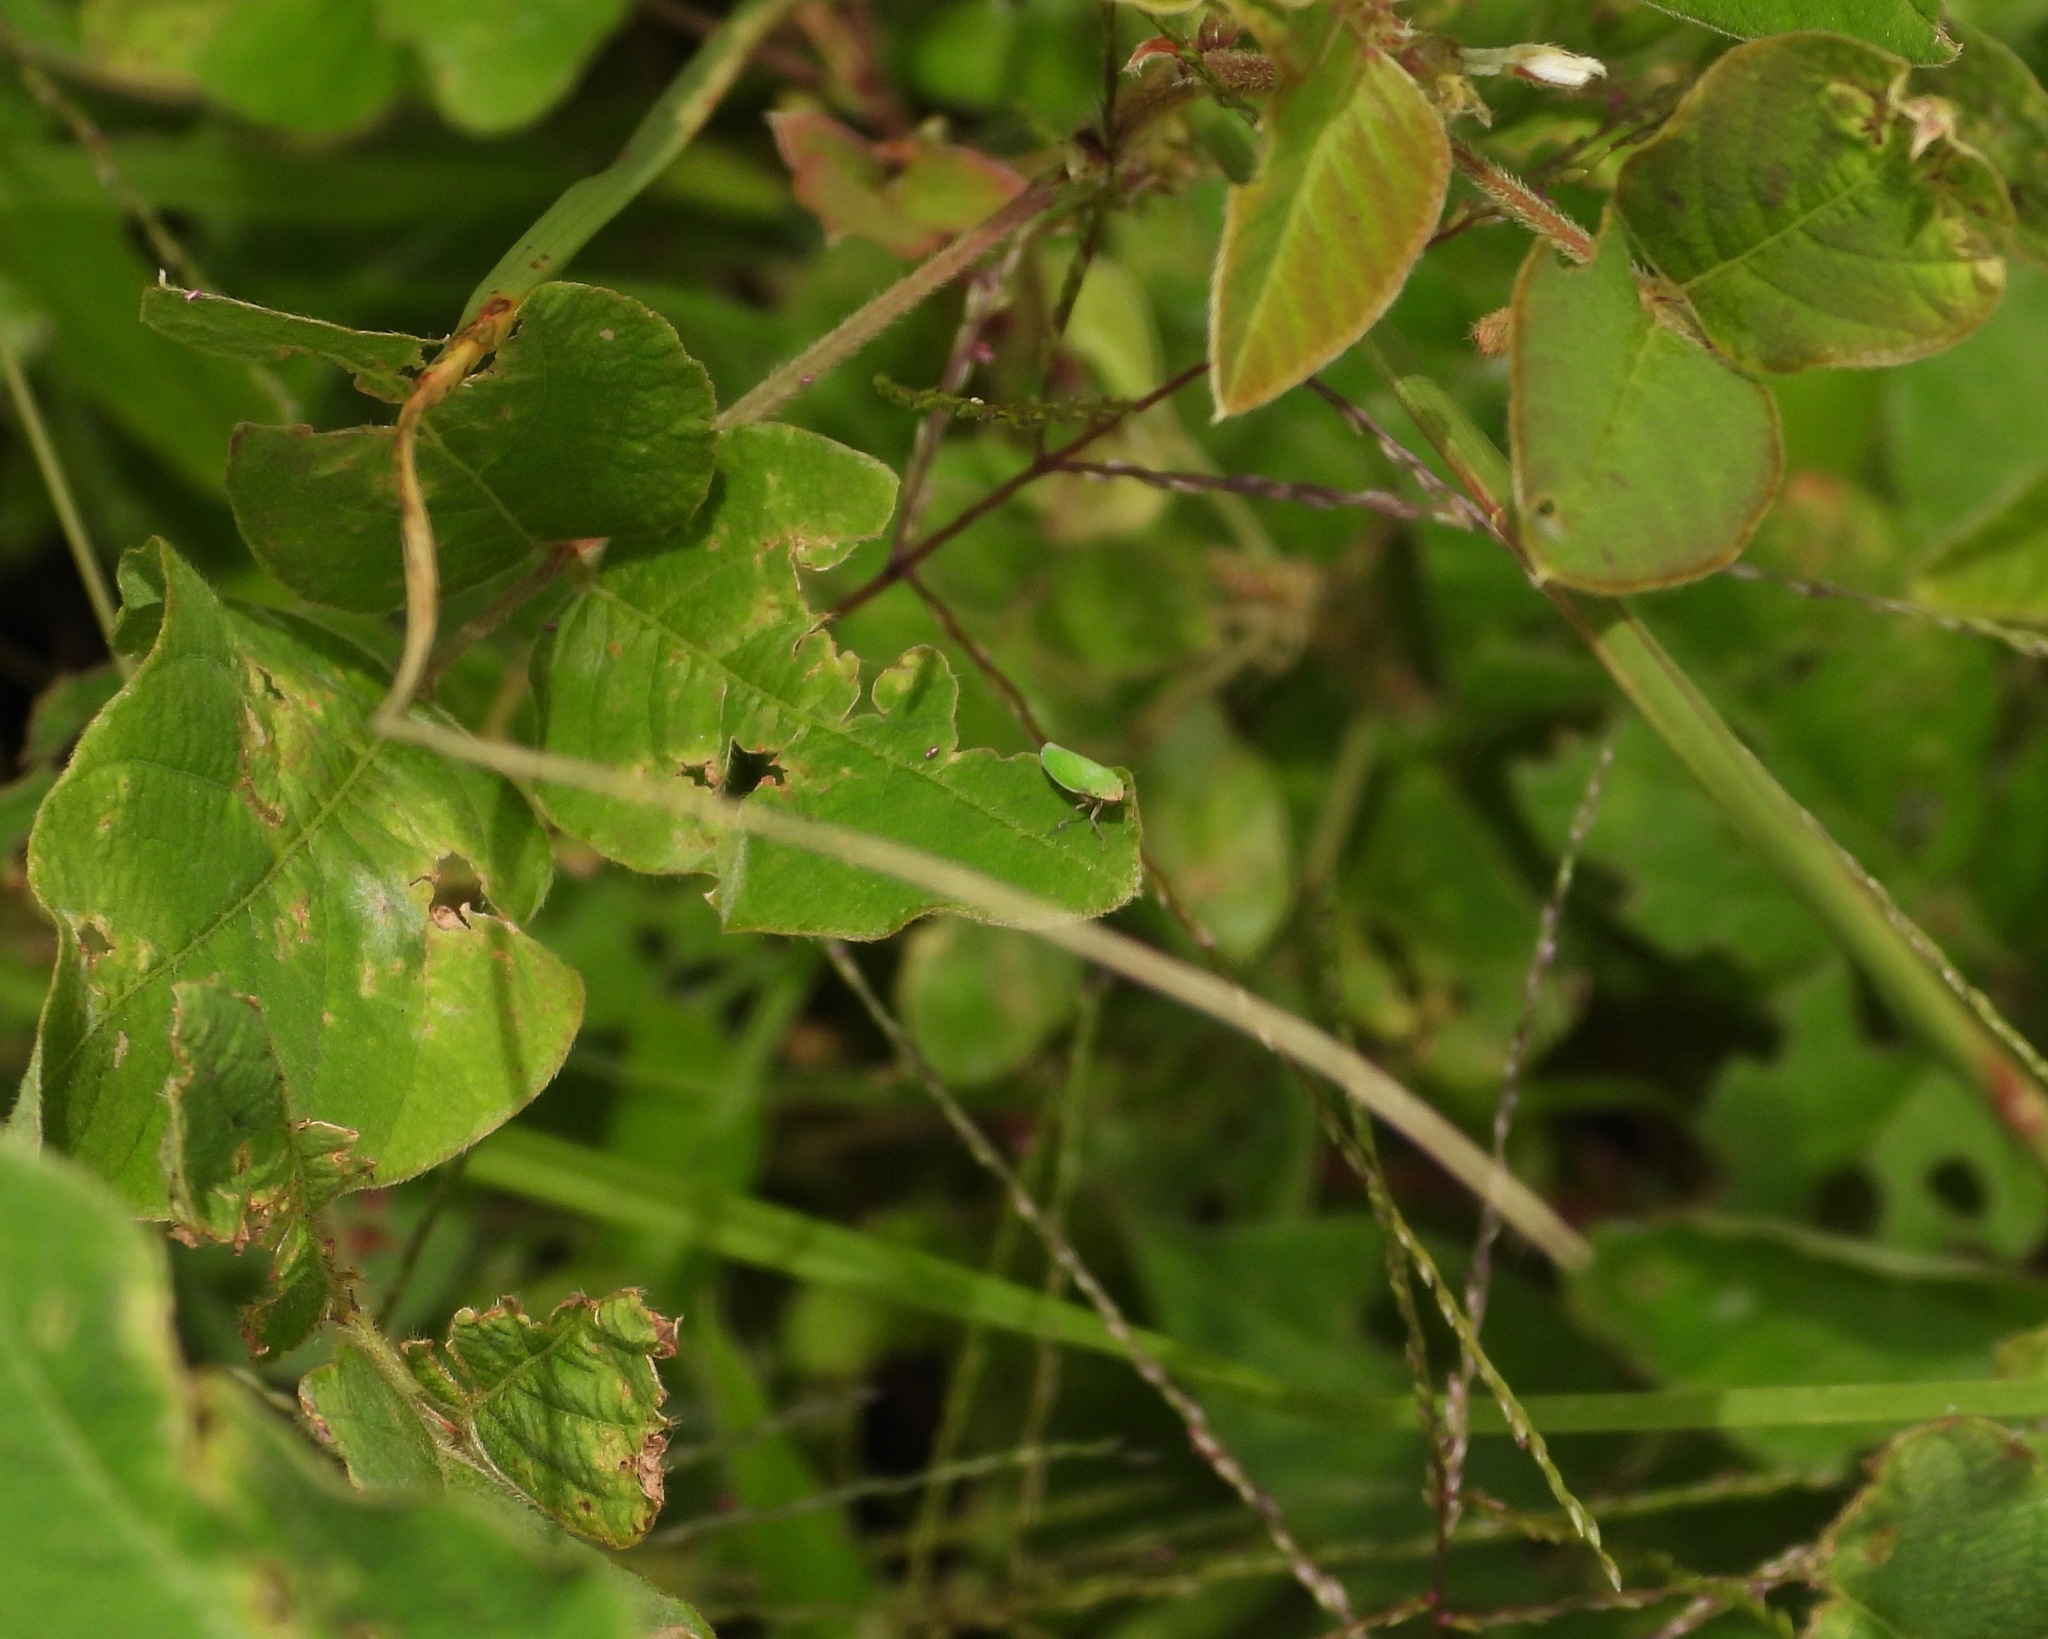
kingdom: Animalia
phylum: Arthropoda
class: Insecta
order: Hemiptera
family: Cicadellidae
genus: Draeculacephala
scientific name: Draeculacephala soluta
